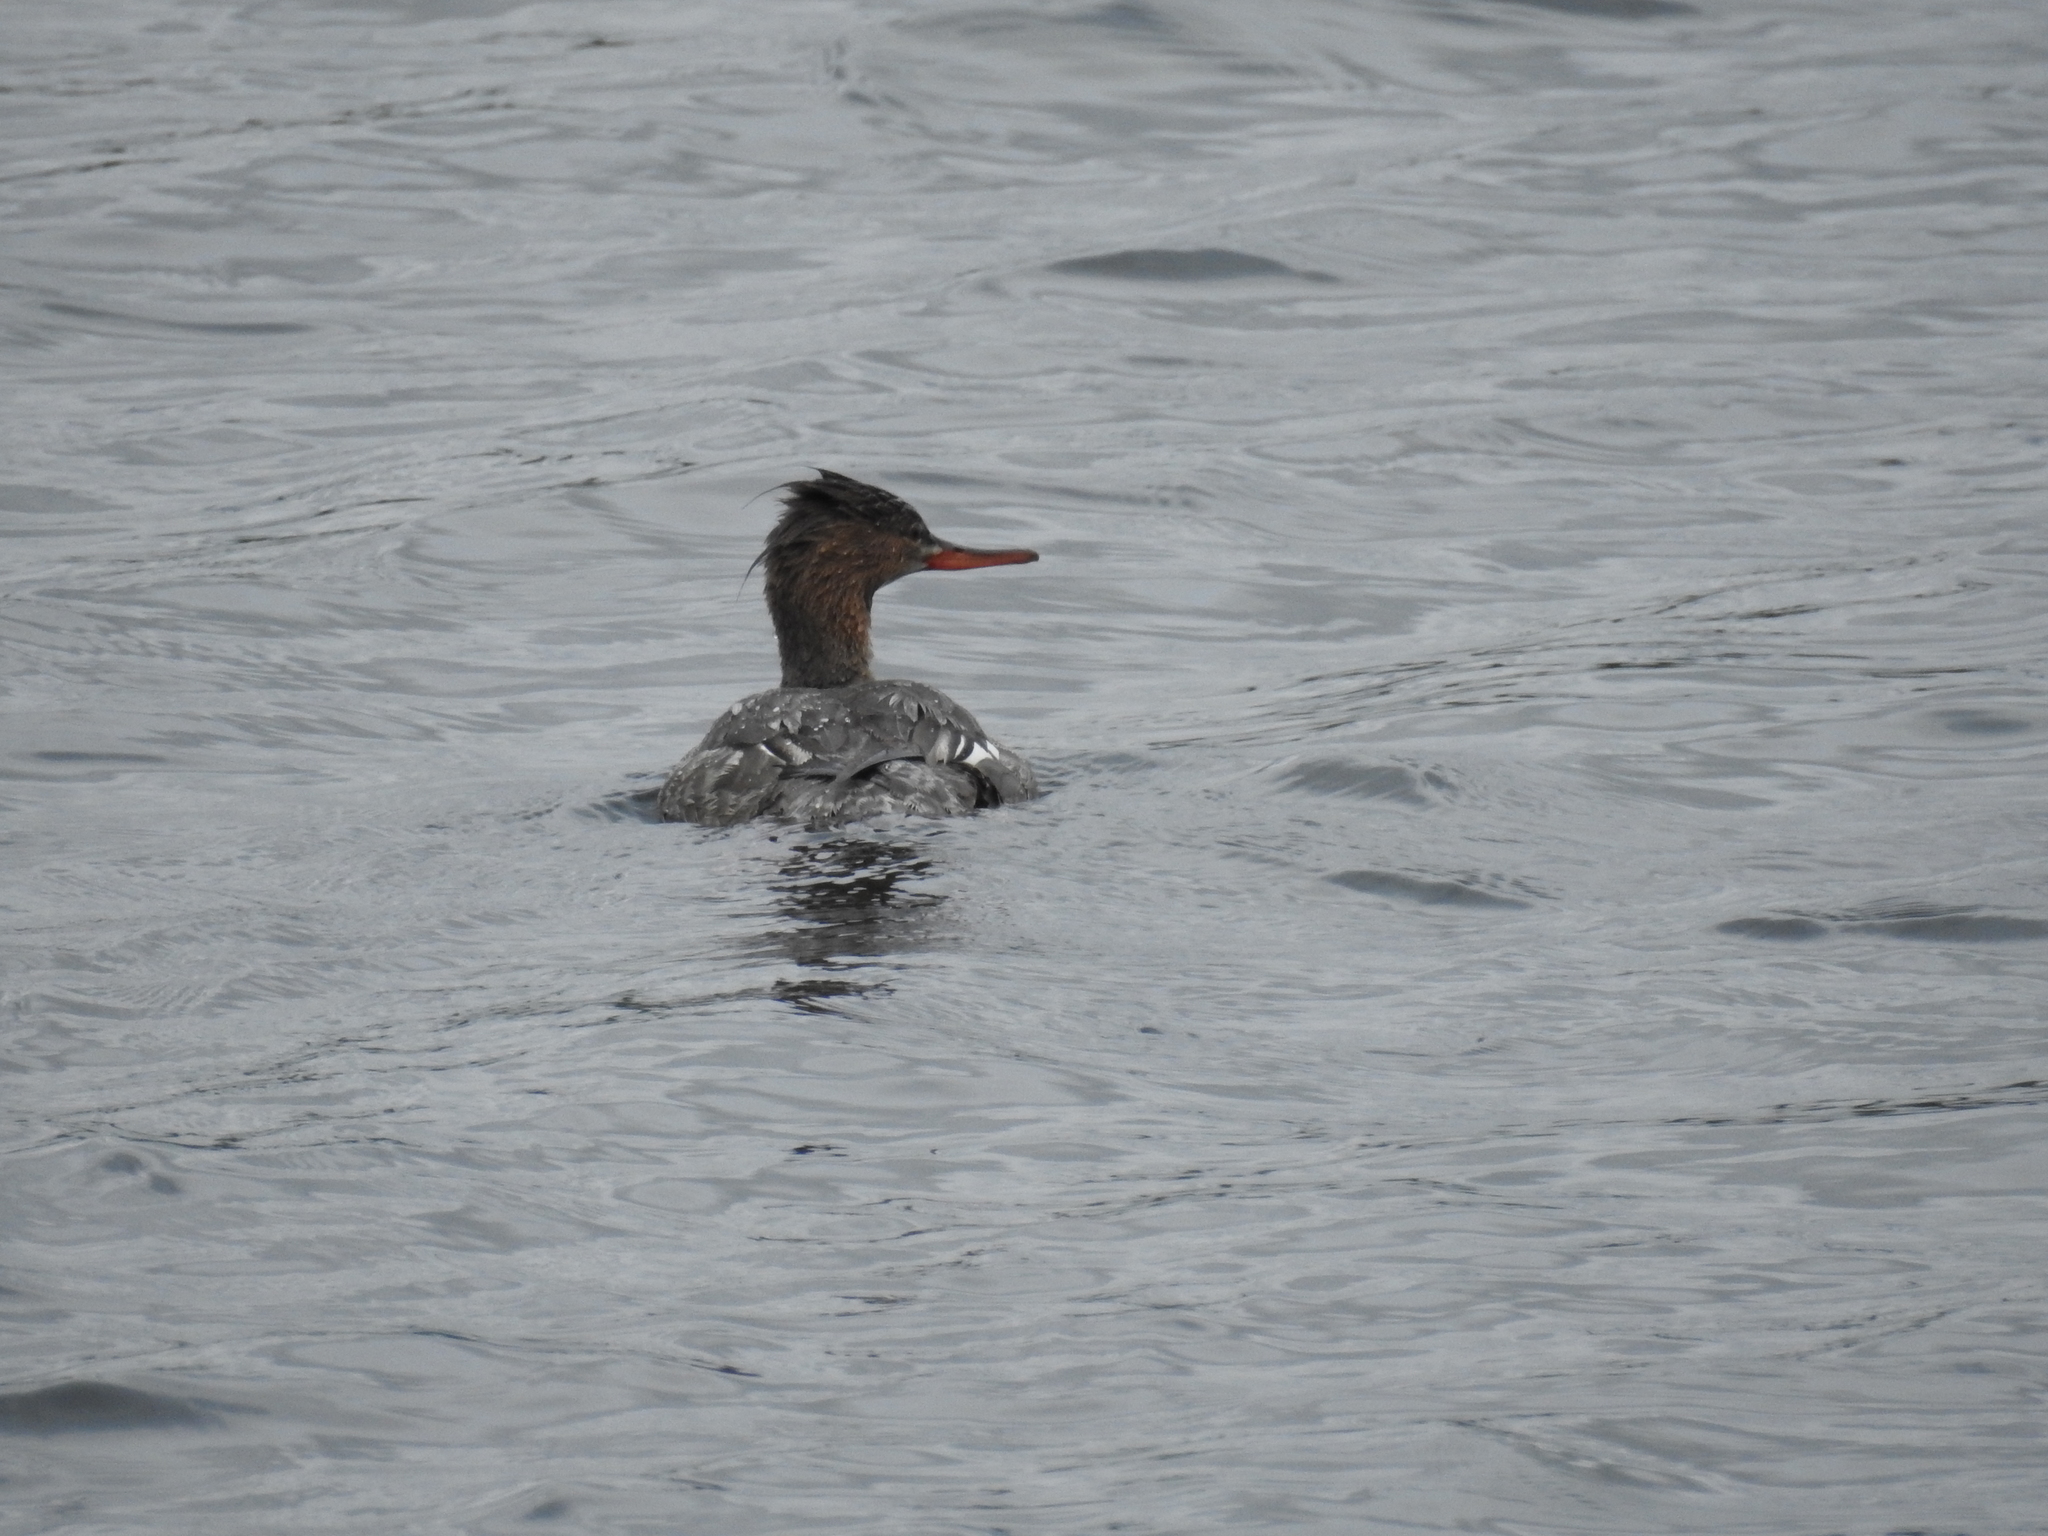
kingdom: Animalia
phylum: Chordata
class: Aves
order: Anseriformes
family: Anatidae
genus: Mergus
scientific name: Mergus serrator
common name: Red-breasted merganser
